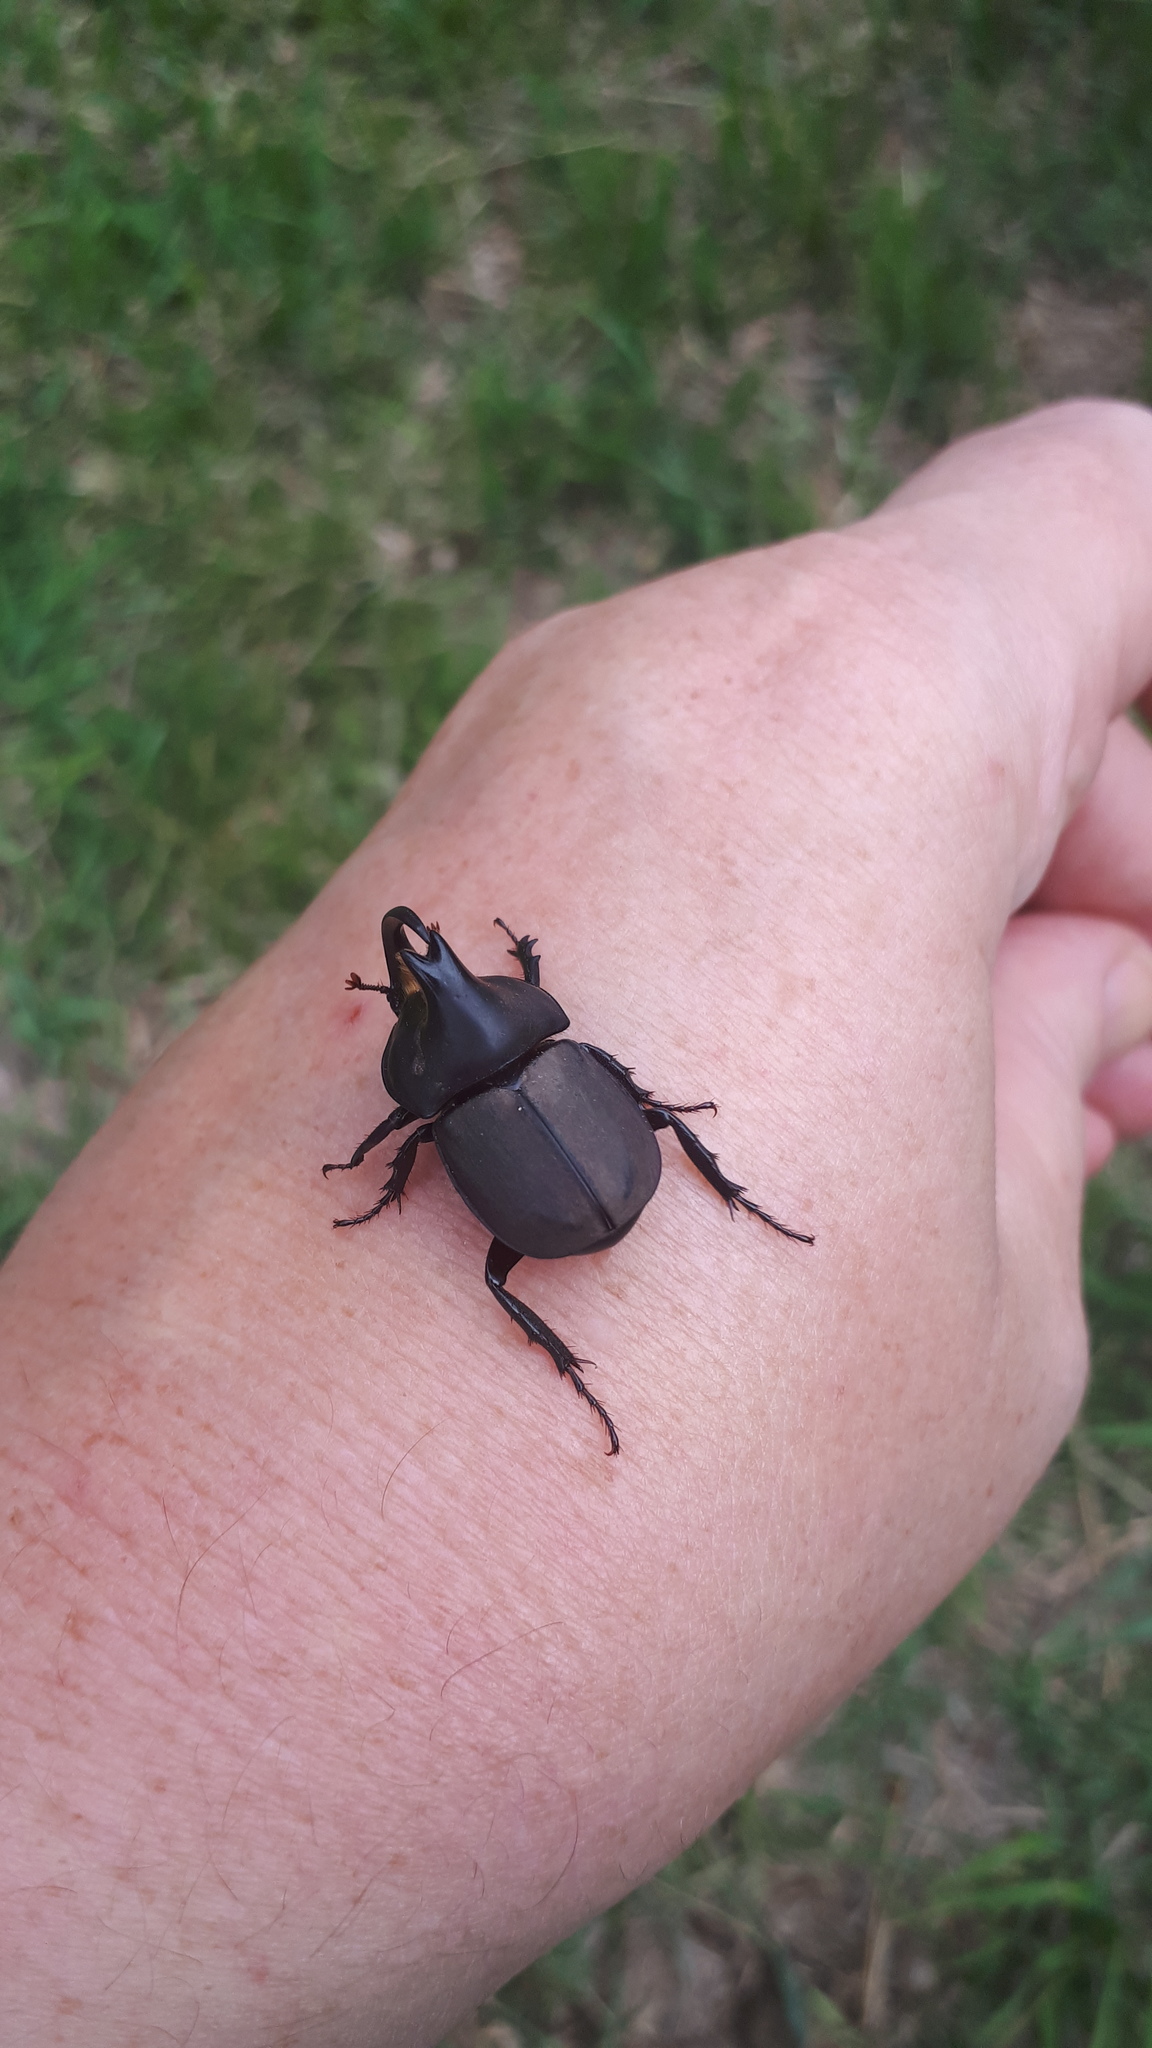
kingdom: Animalia
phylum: Arthropoda
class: Insecta
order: Coleoptera
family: Scarabaeidae
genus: Diloboderus
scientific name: Diloboderus abderus
